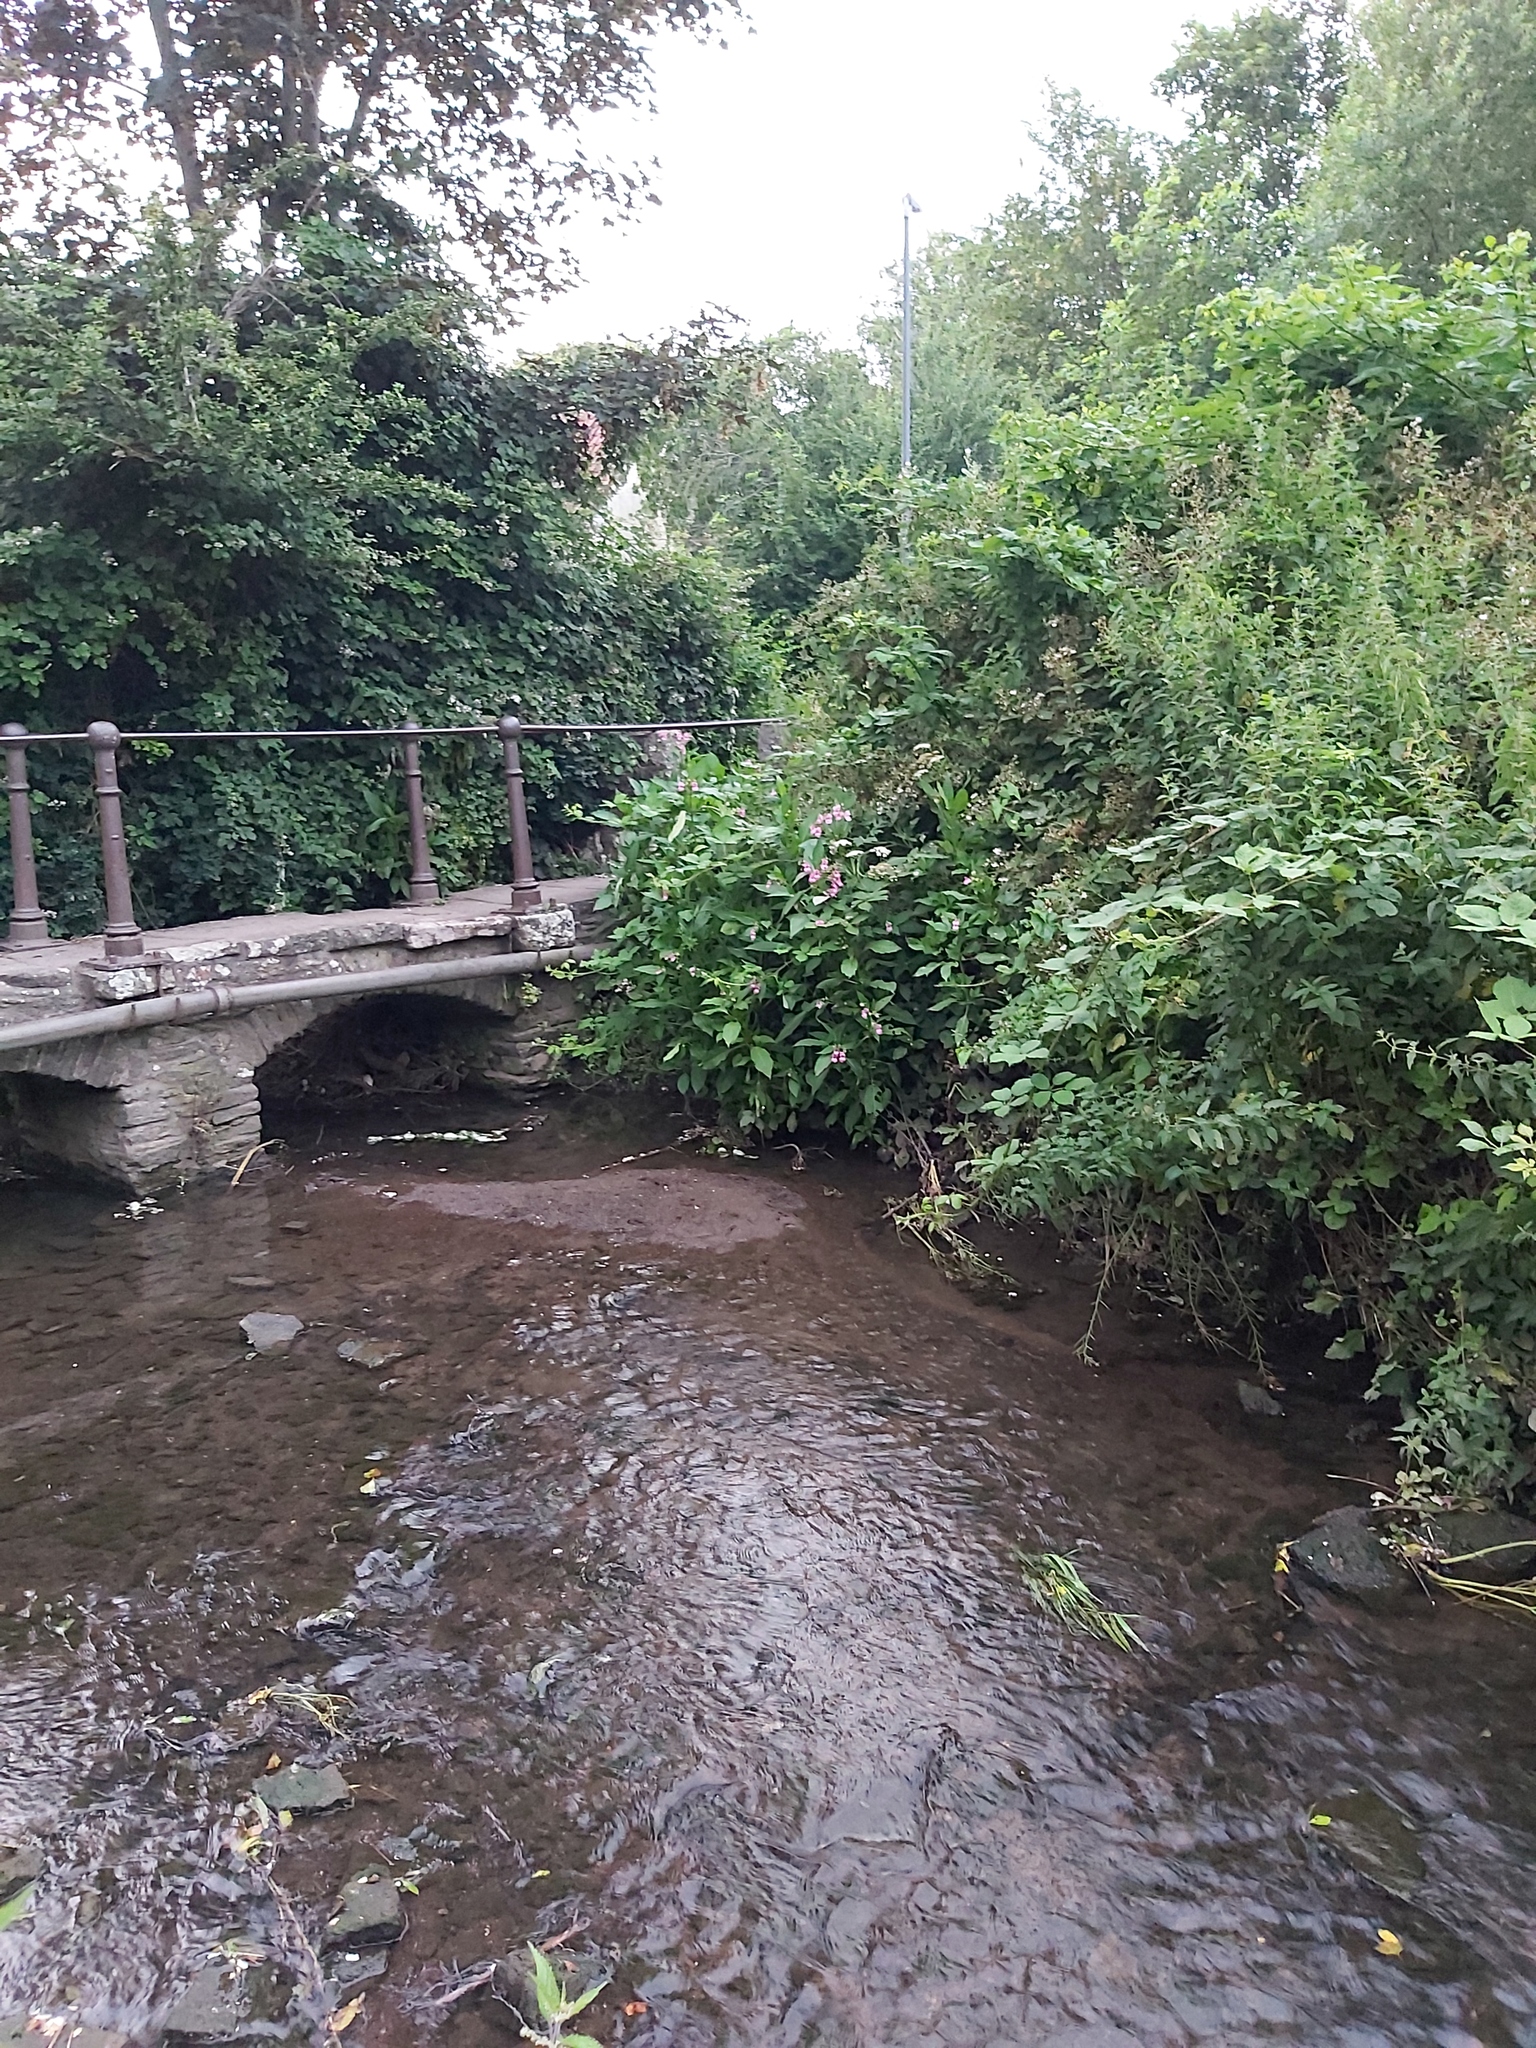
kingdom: Plantae
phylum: Tracheophyta
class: Magnoliopsida
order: Ericales
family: Balsaminaceae
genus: Impatiens
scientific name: Impatiens glandulifera
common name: Himalayan balsam
